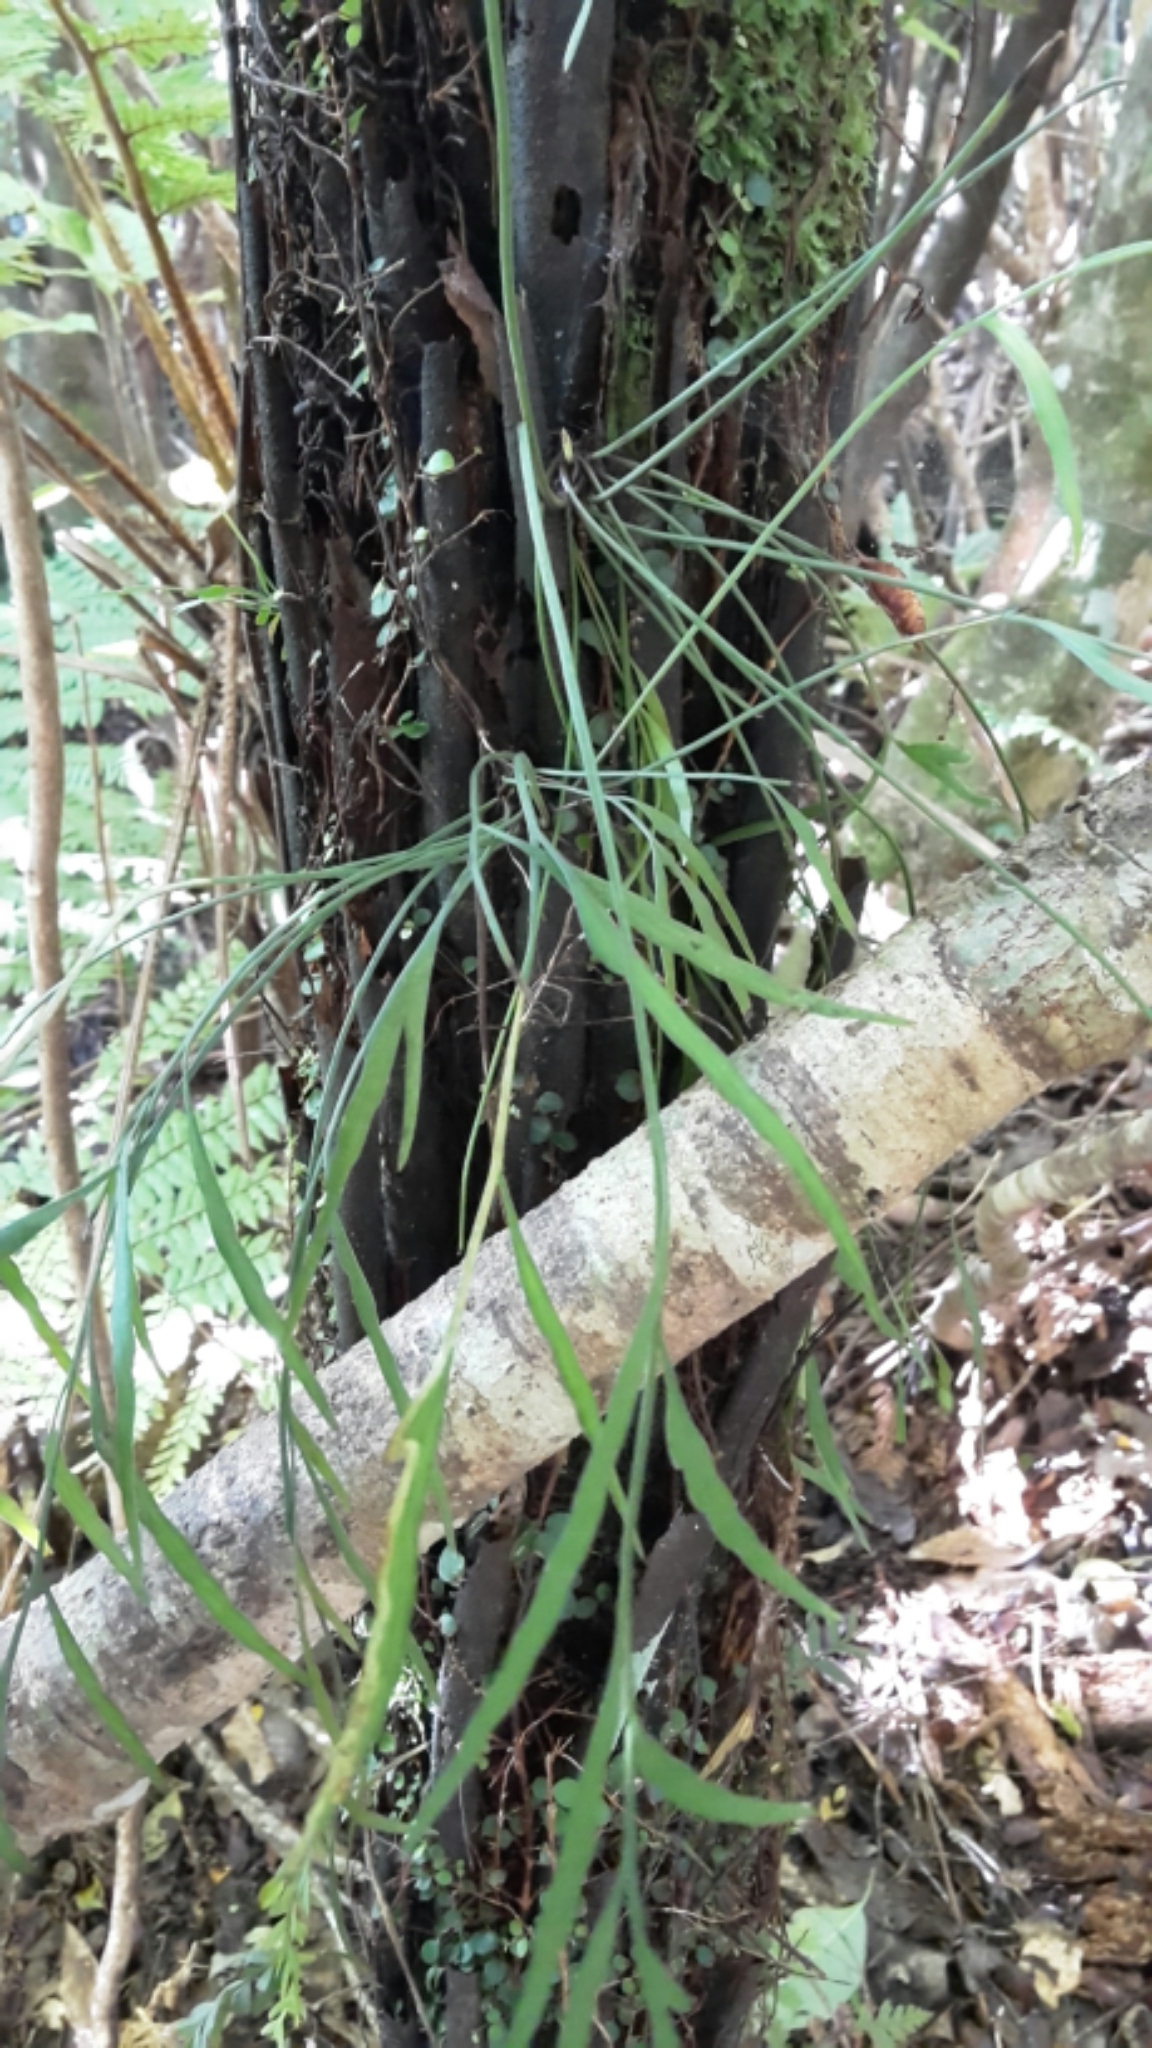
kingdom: Plantae
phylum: Tracheophyta
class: Polypodiopsida
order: Polypodiales
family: Aspleniaceae
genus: Asplenium
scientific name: Asplenium flaccidum
